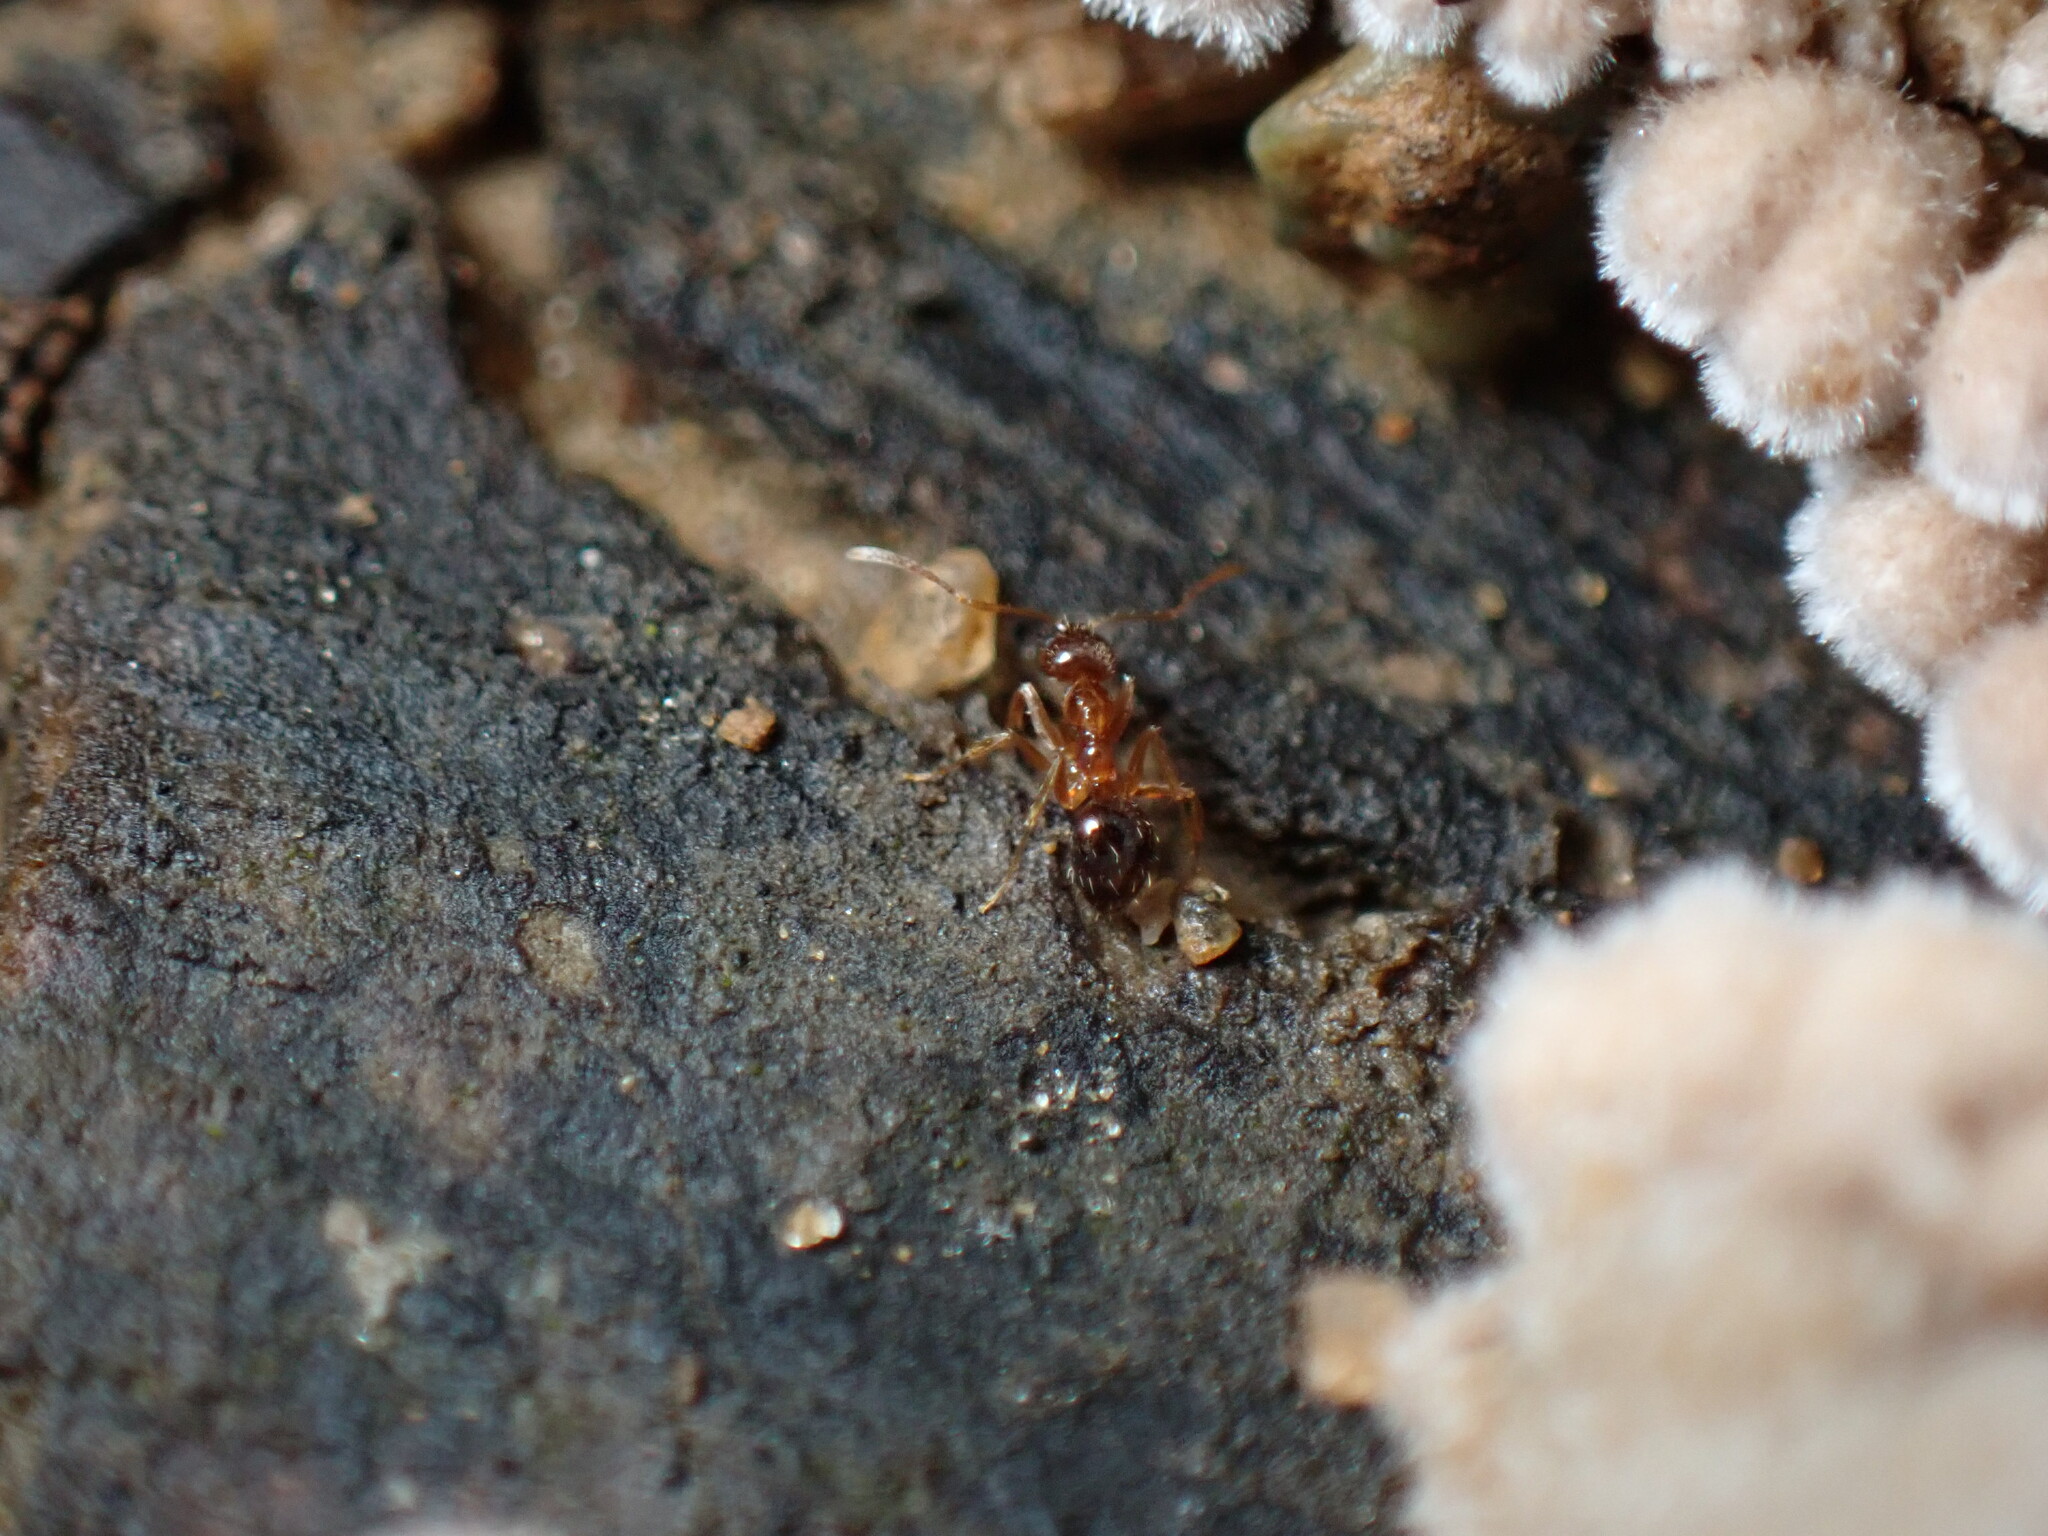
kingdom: Animalia
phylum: Arthropoda
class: Insecta
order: Hymenoptera
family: Formicidae
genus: Paratrechina
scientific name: Paratrechina flavipes
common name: Eastern asian formicine ant
